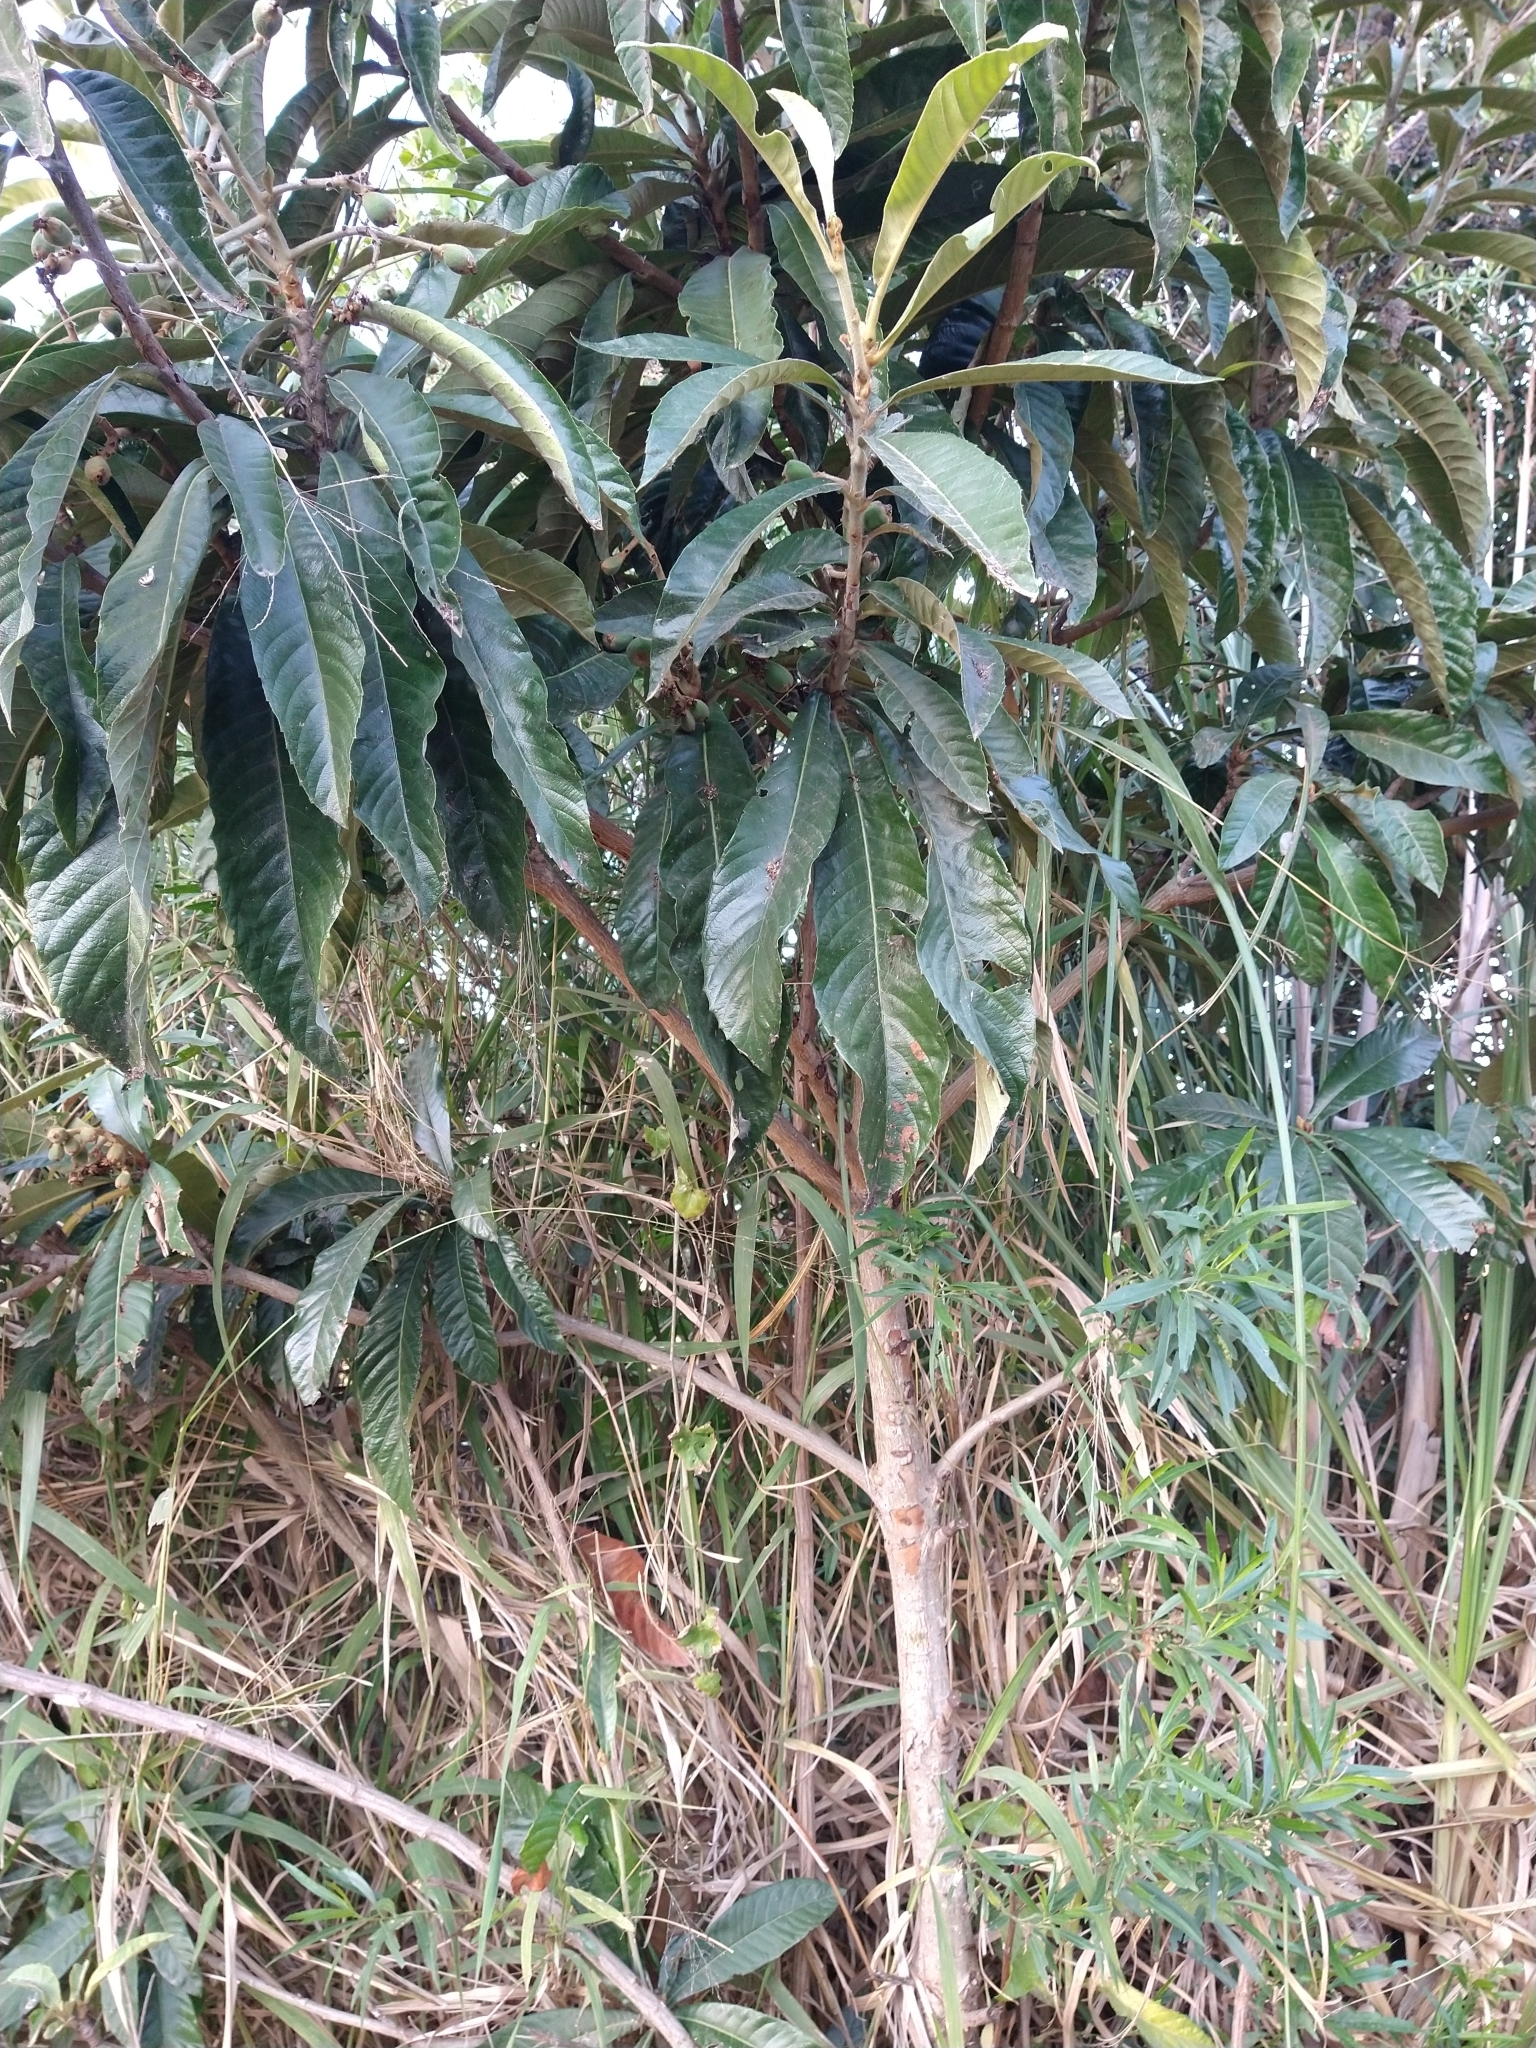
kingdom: Plantae
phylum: Tracheophyta
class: Magnoliopsida
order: Rosales
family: Rosaceae
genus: Rhaphiolepis
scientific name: Rhaphiolepis bibas
